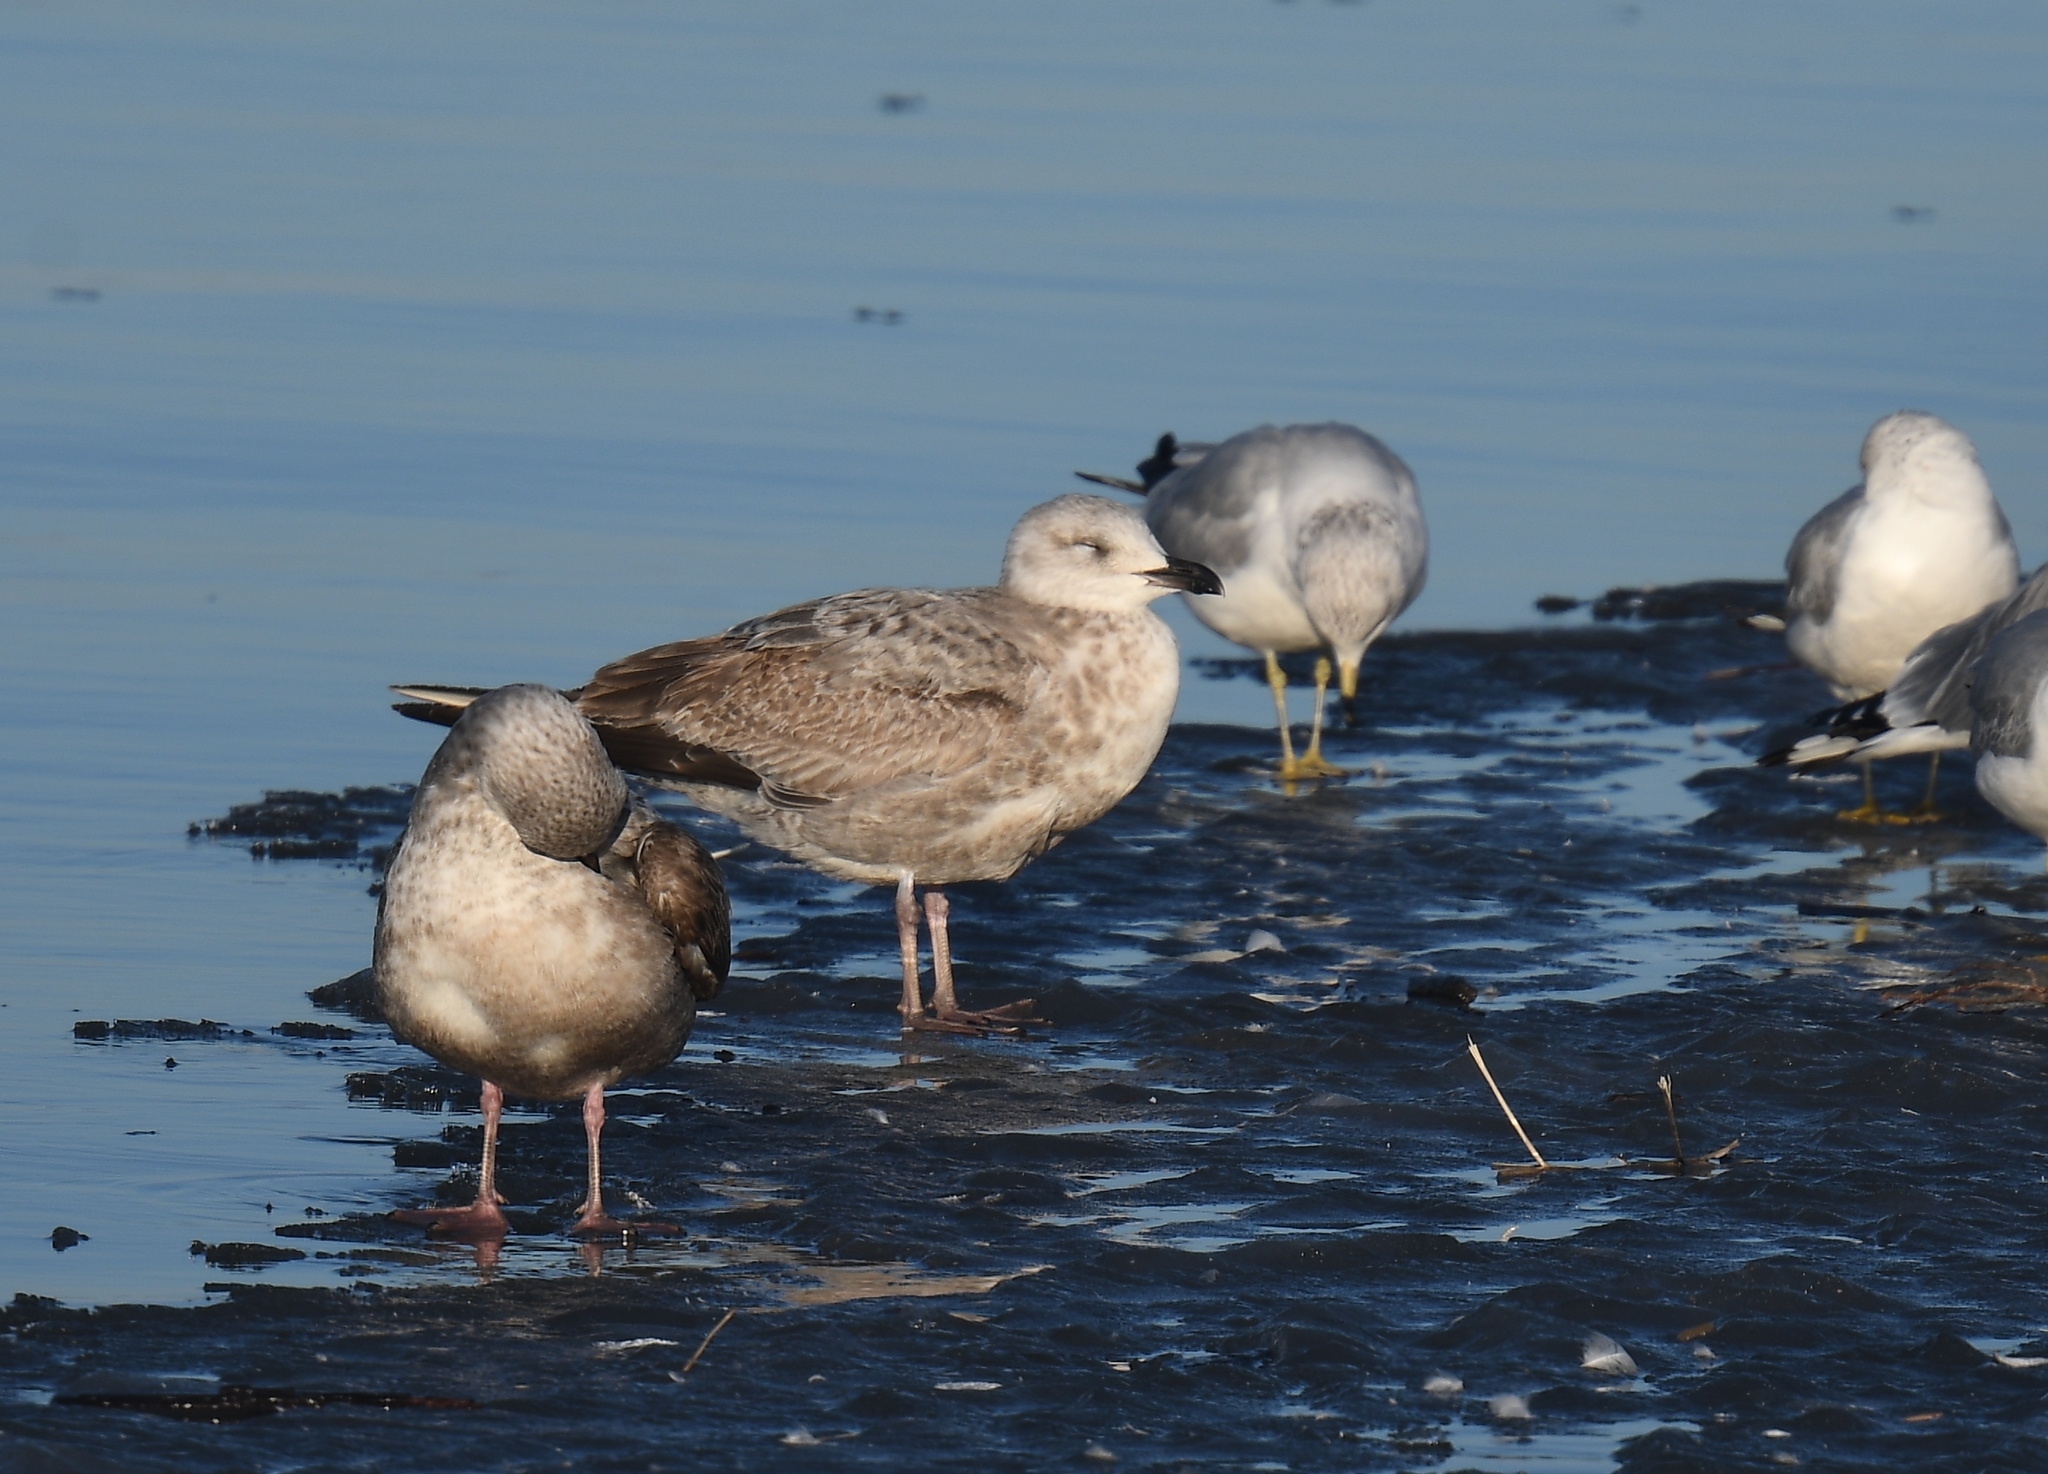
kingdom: Animalia
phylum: Chordata
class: Aves
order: Charadriiformes
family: Laridae
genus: Larus
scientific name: Larus argentatus
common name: Herring gull
